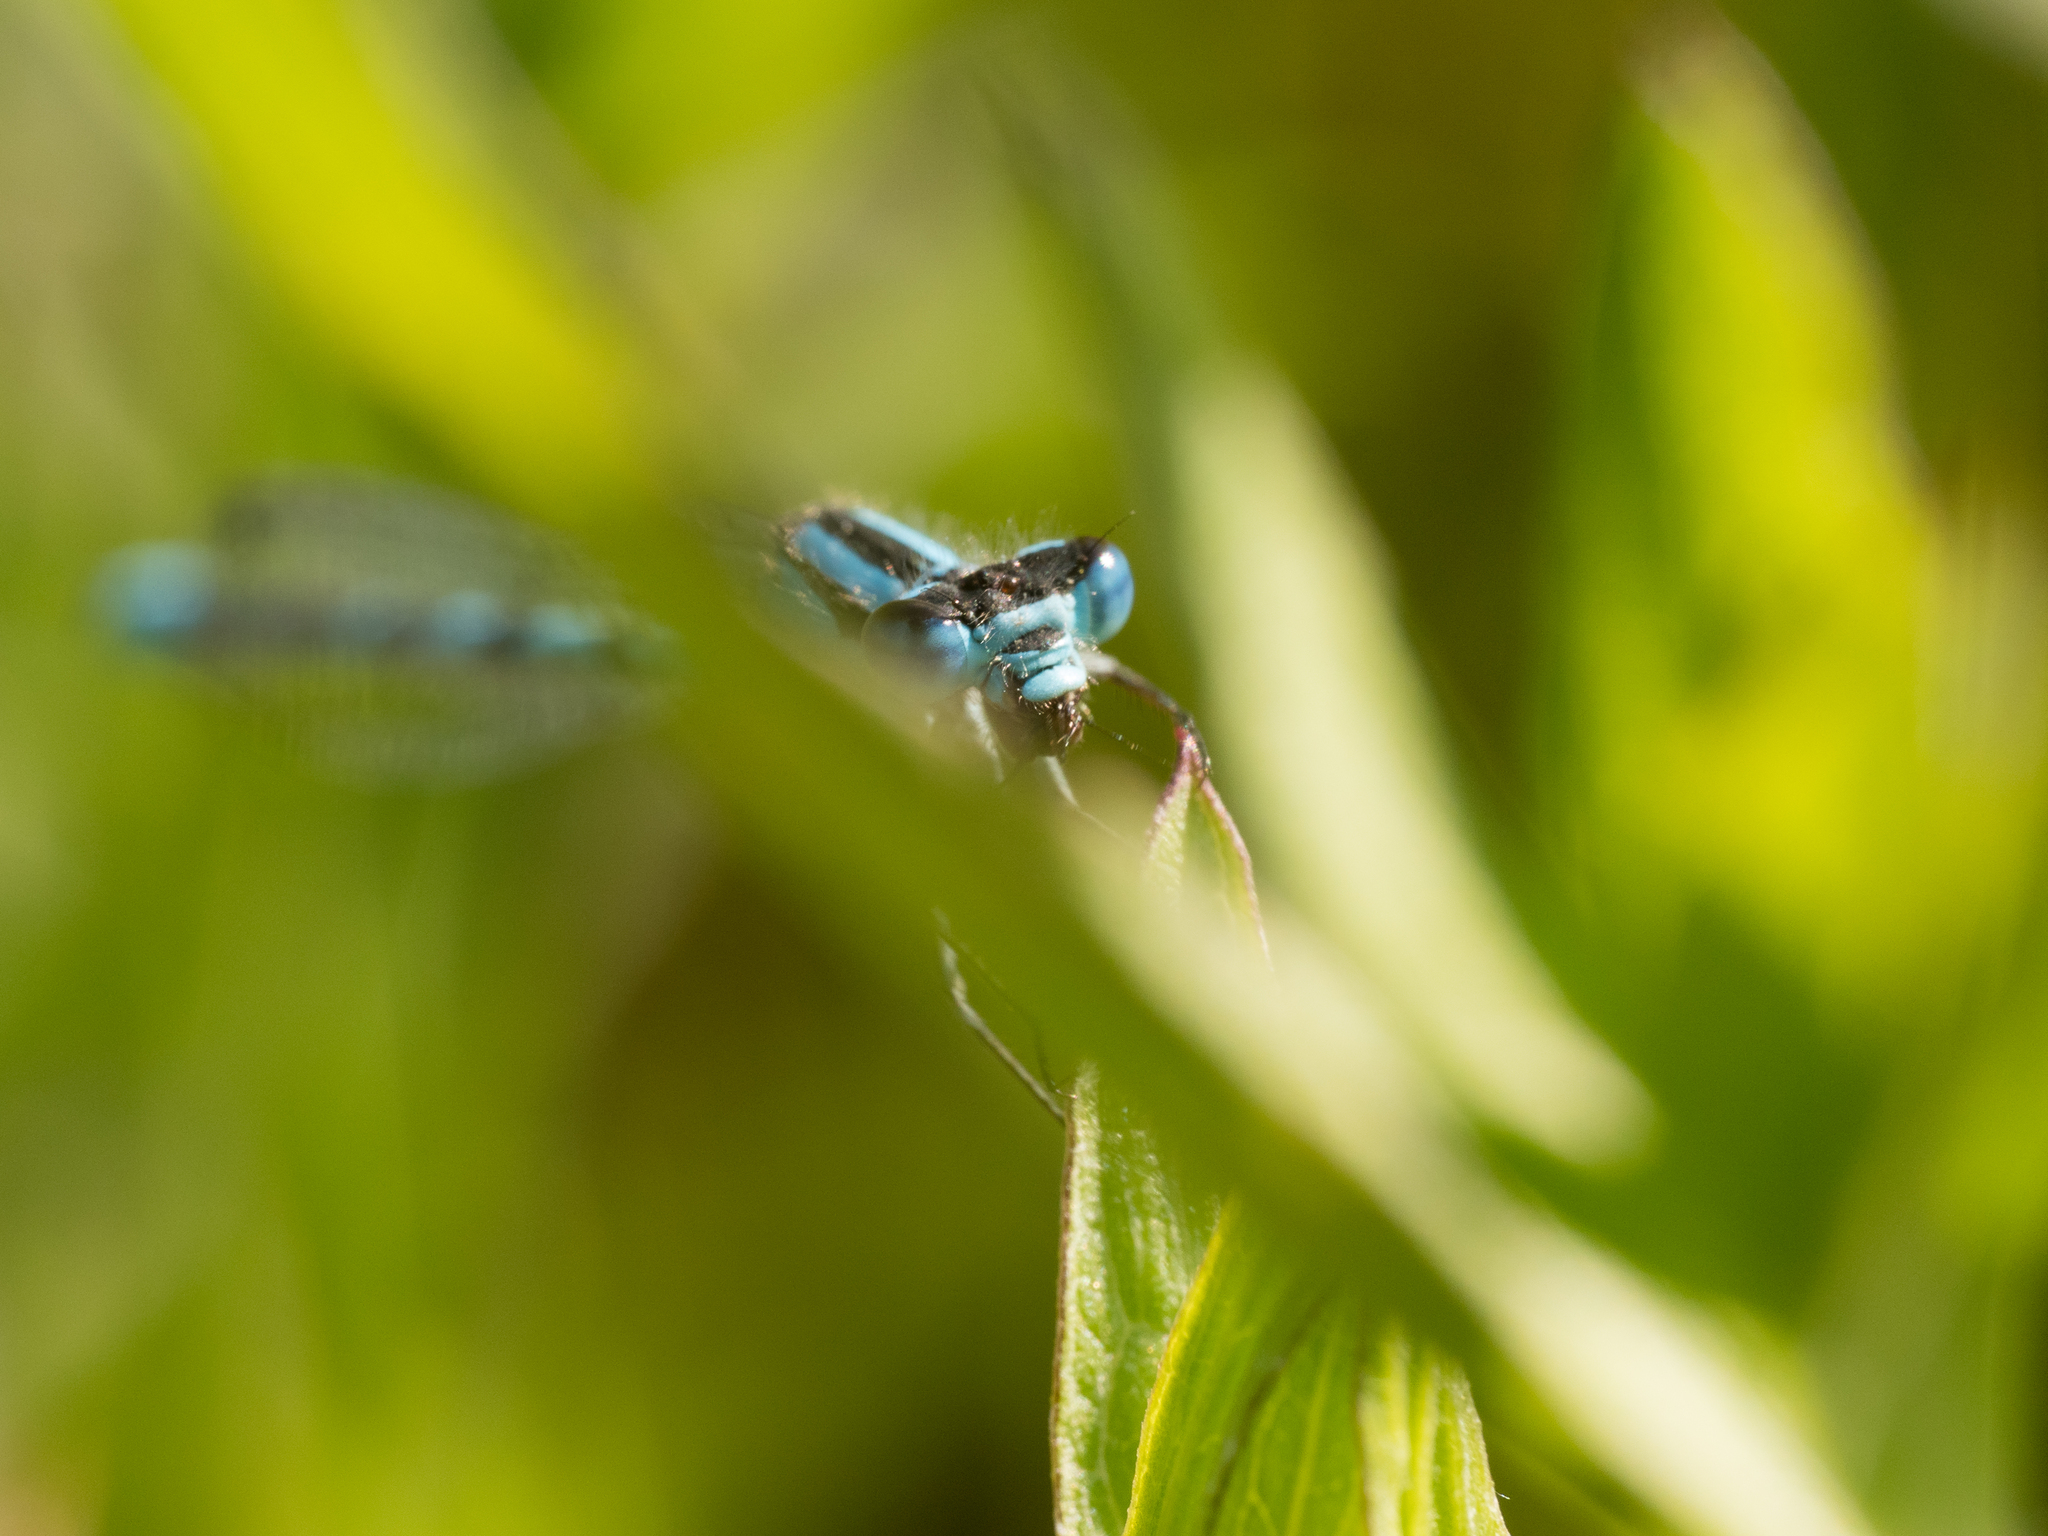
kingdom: Animalia
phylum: Arthropoda
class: Insecta
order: Odonata
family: Coenagrionidae
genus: Enallagma
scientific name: Enallagma cyathigerum
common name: Common blue damselfly
